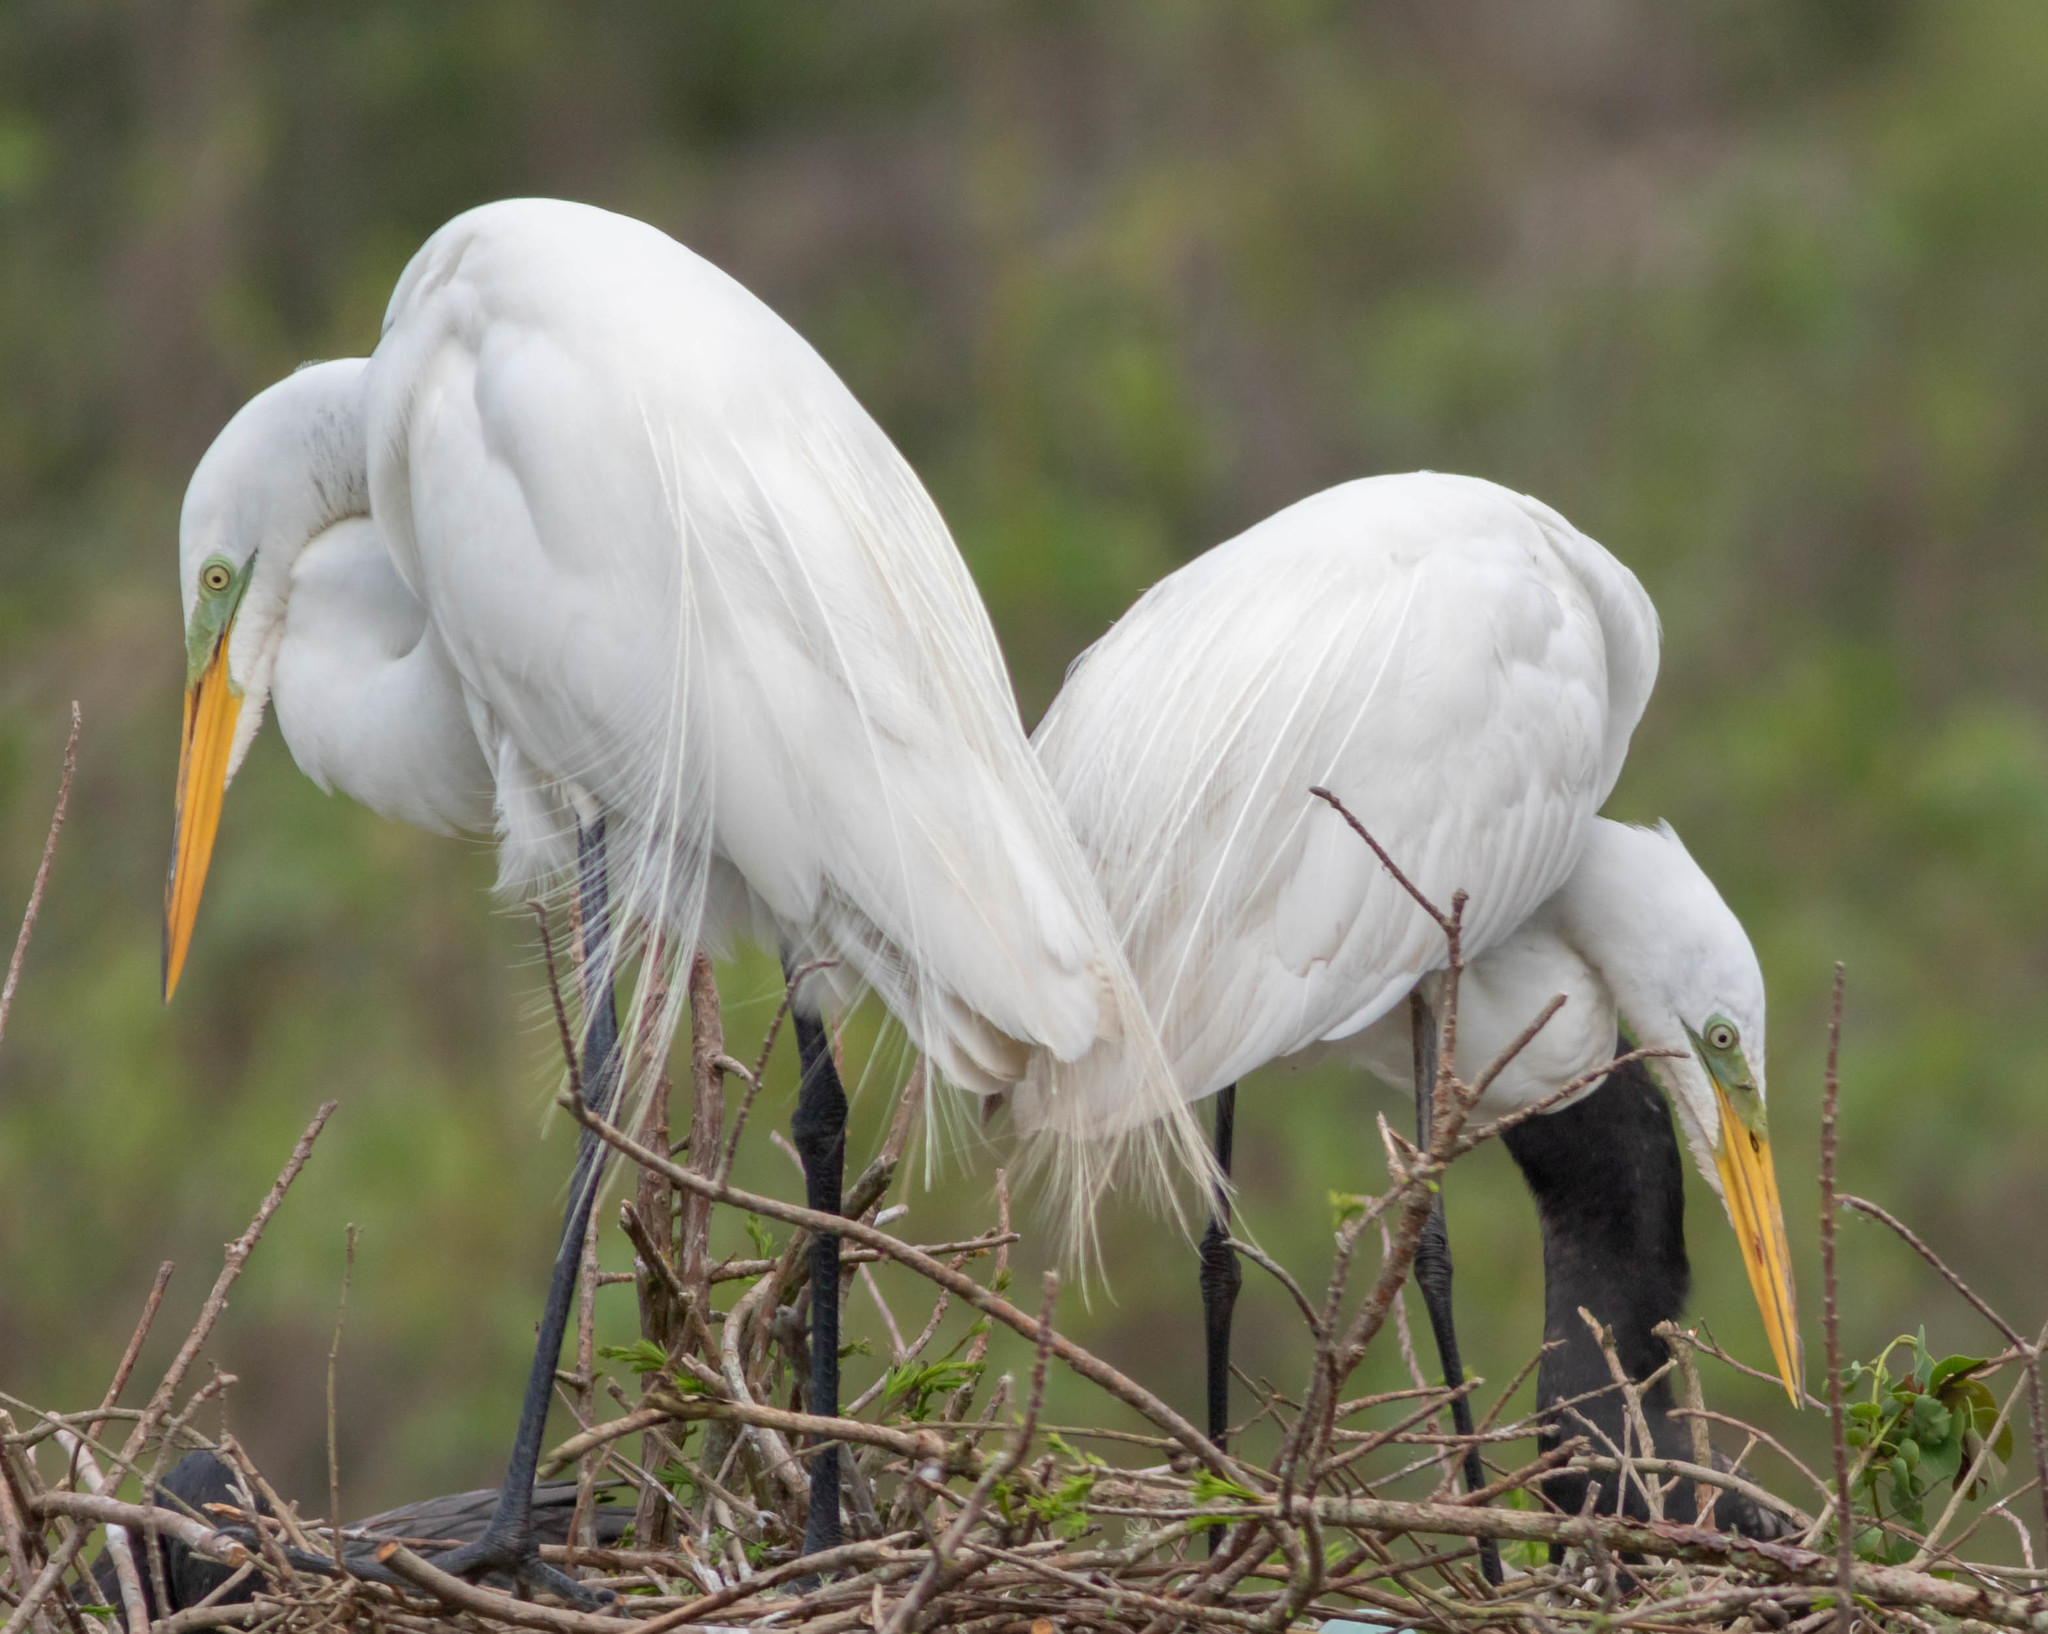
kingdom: Animalia
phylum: Chordata
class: Aves
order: Pelecaniformes
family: Ardeidae
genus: Ardea
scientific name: Ardea alba
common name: Great egret
